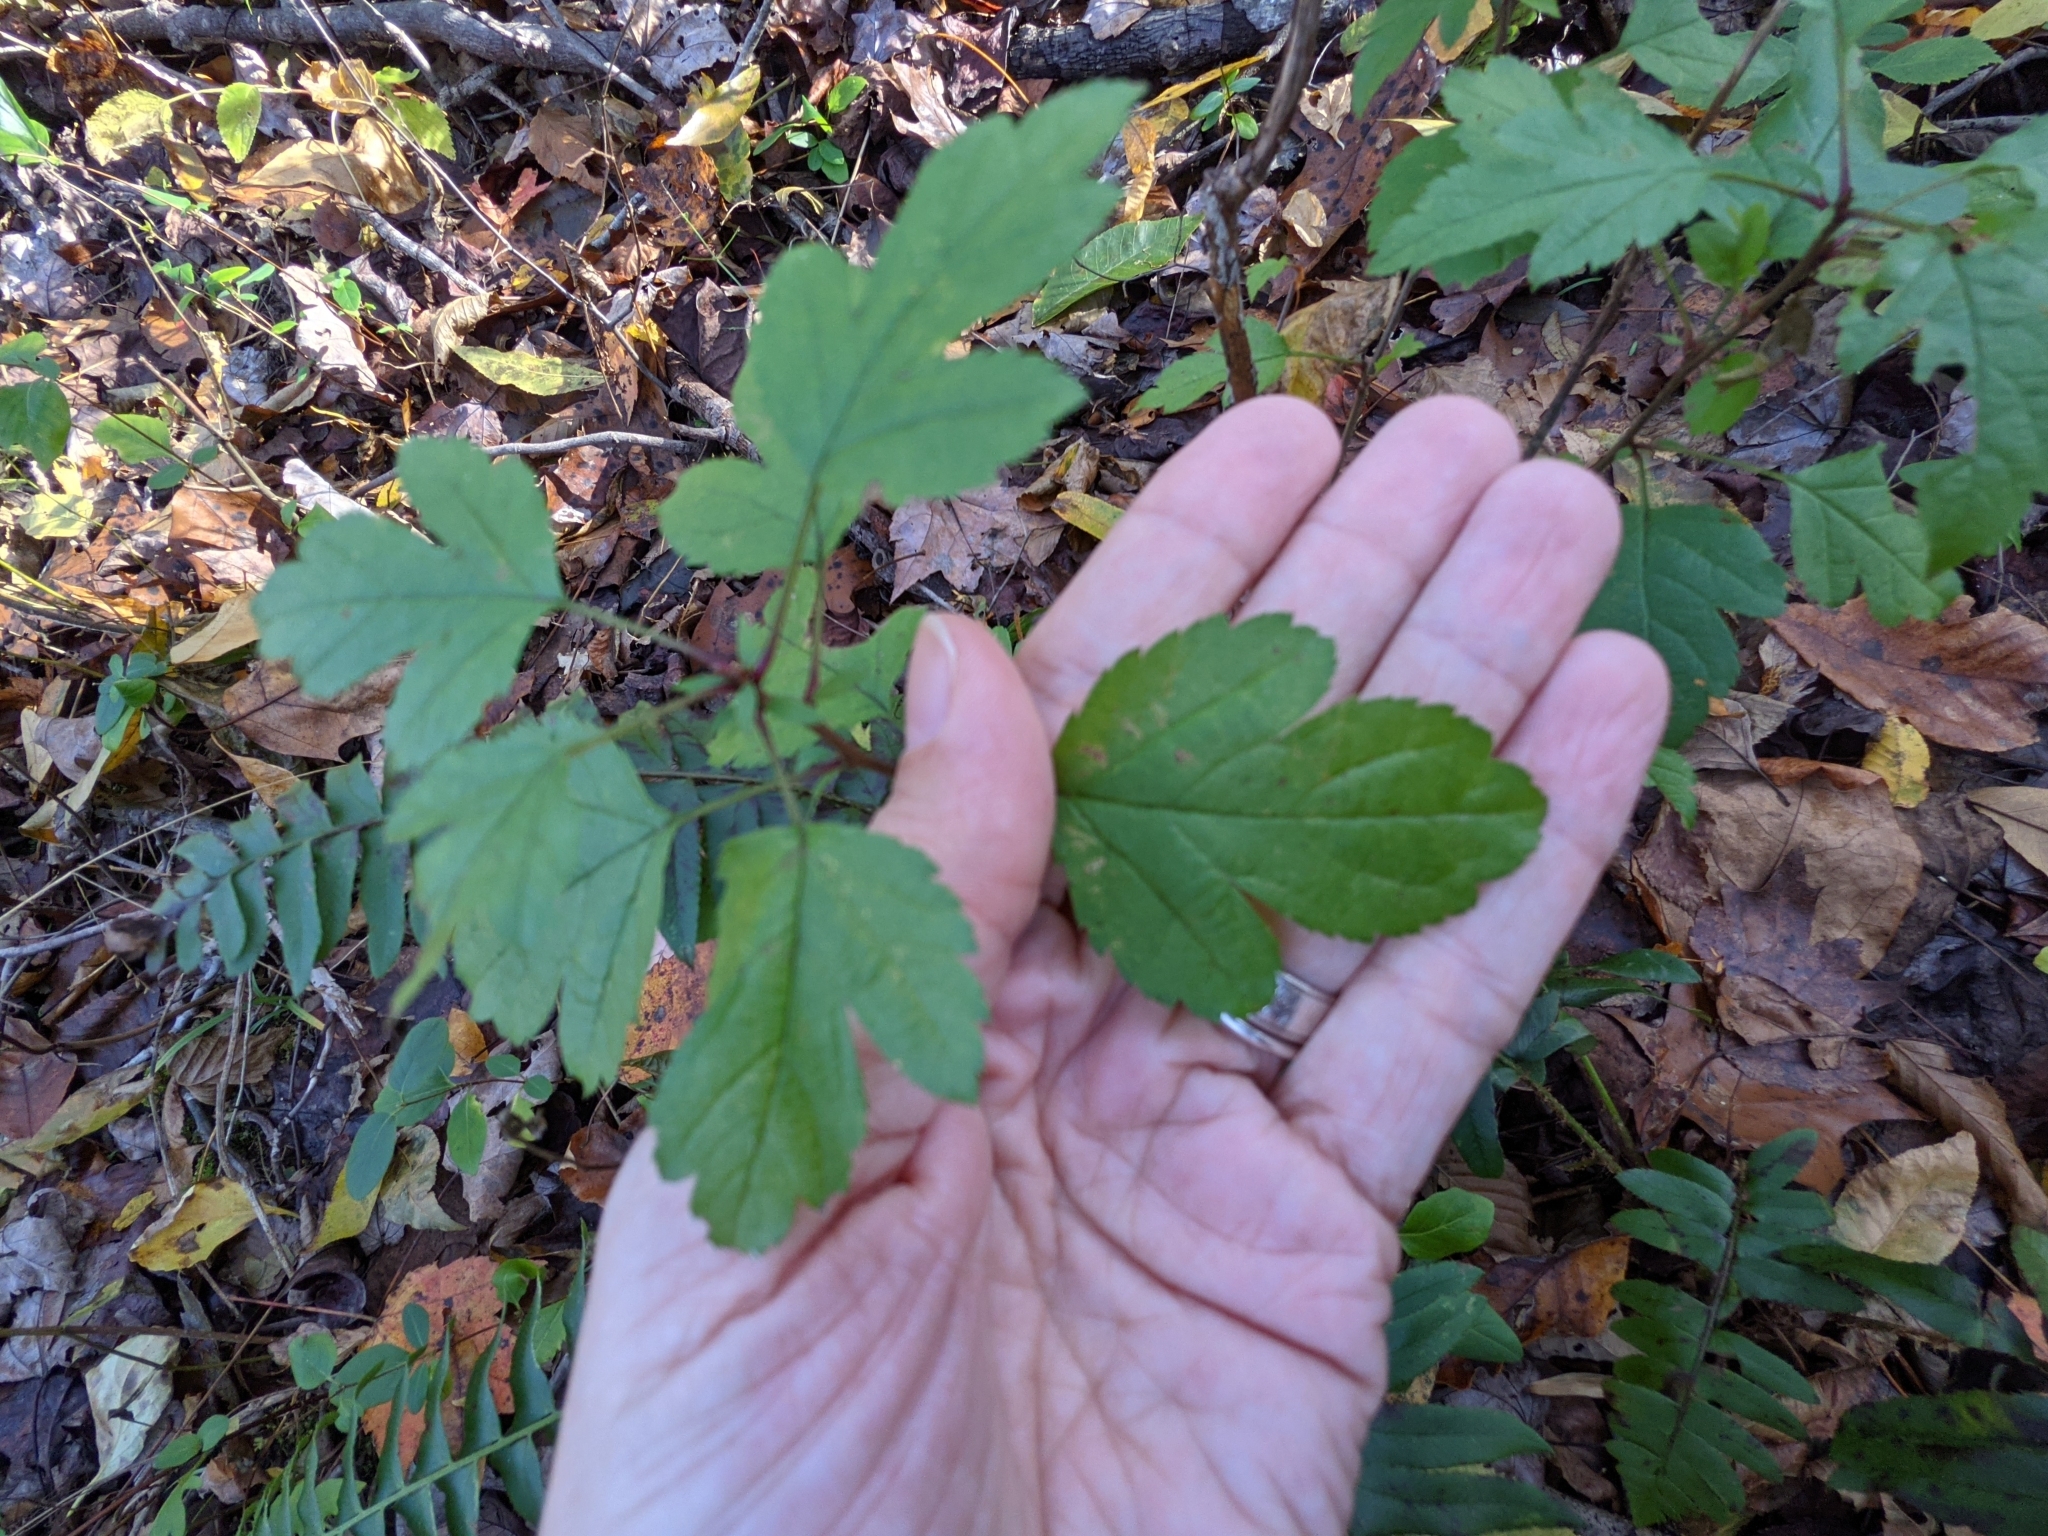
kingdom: Plantae
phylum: Tracheophyta
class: Magnoliopsida
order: Rosales
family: Rosaceae
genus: Physocarpus
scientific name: Physocarpus opulifolius
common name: Ninebark
